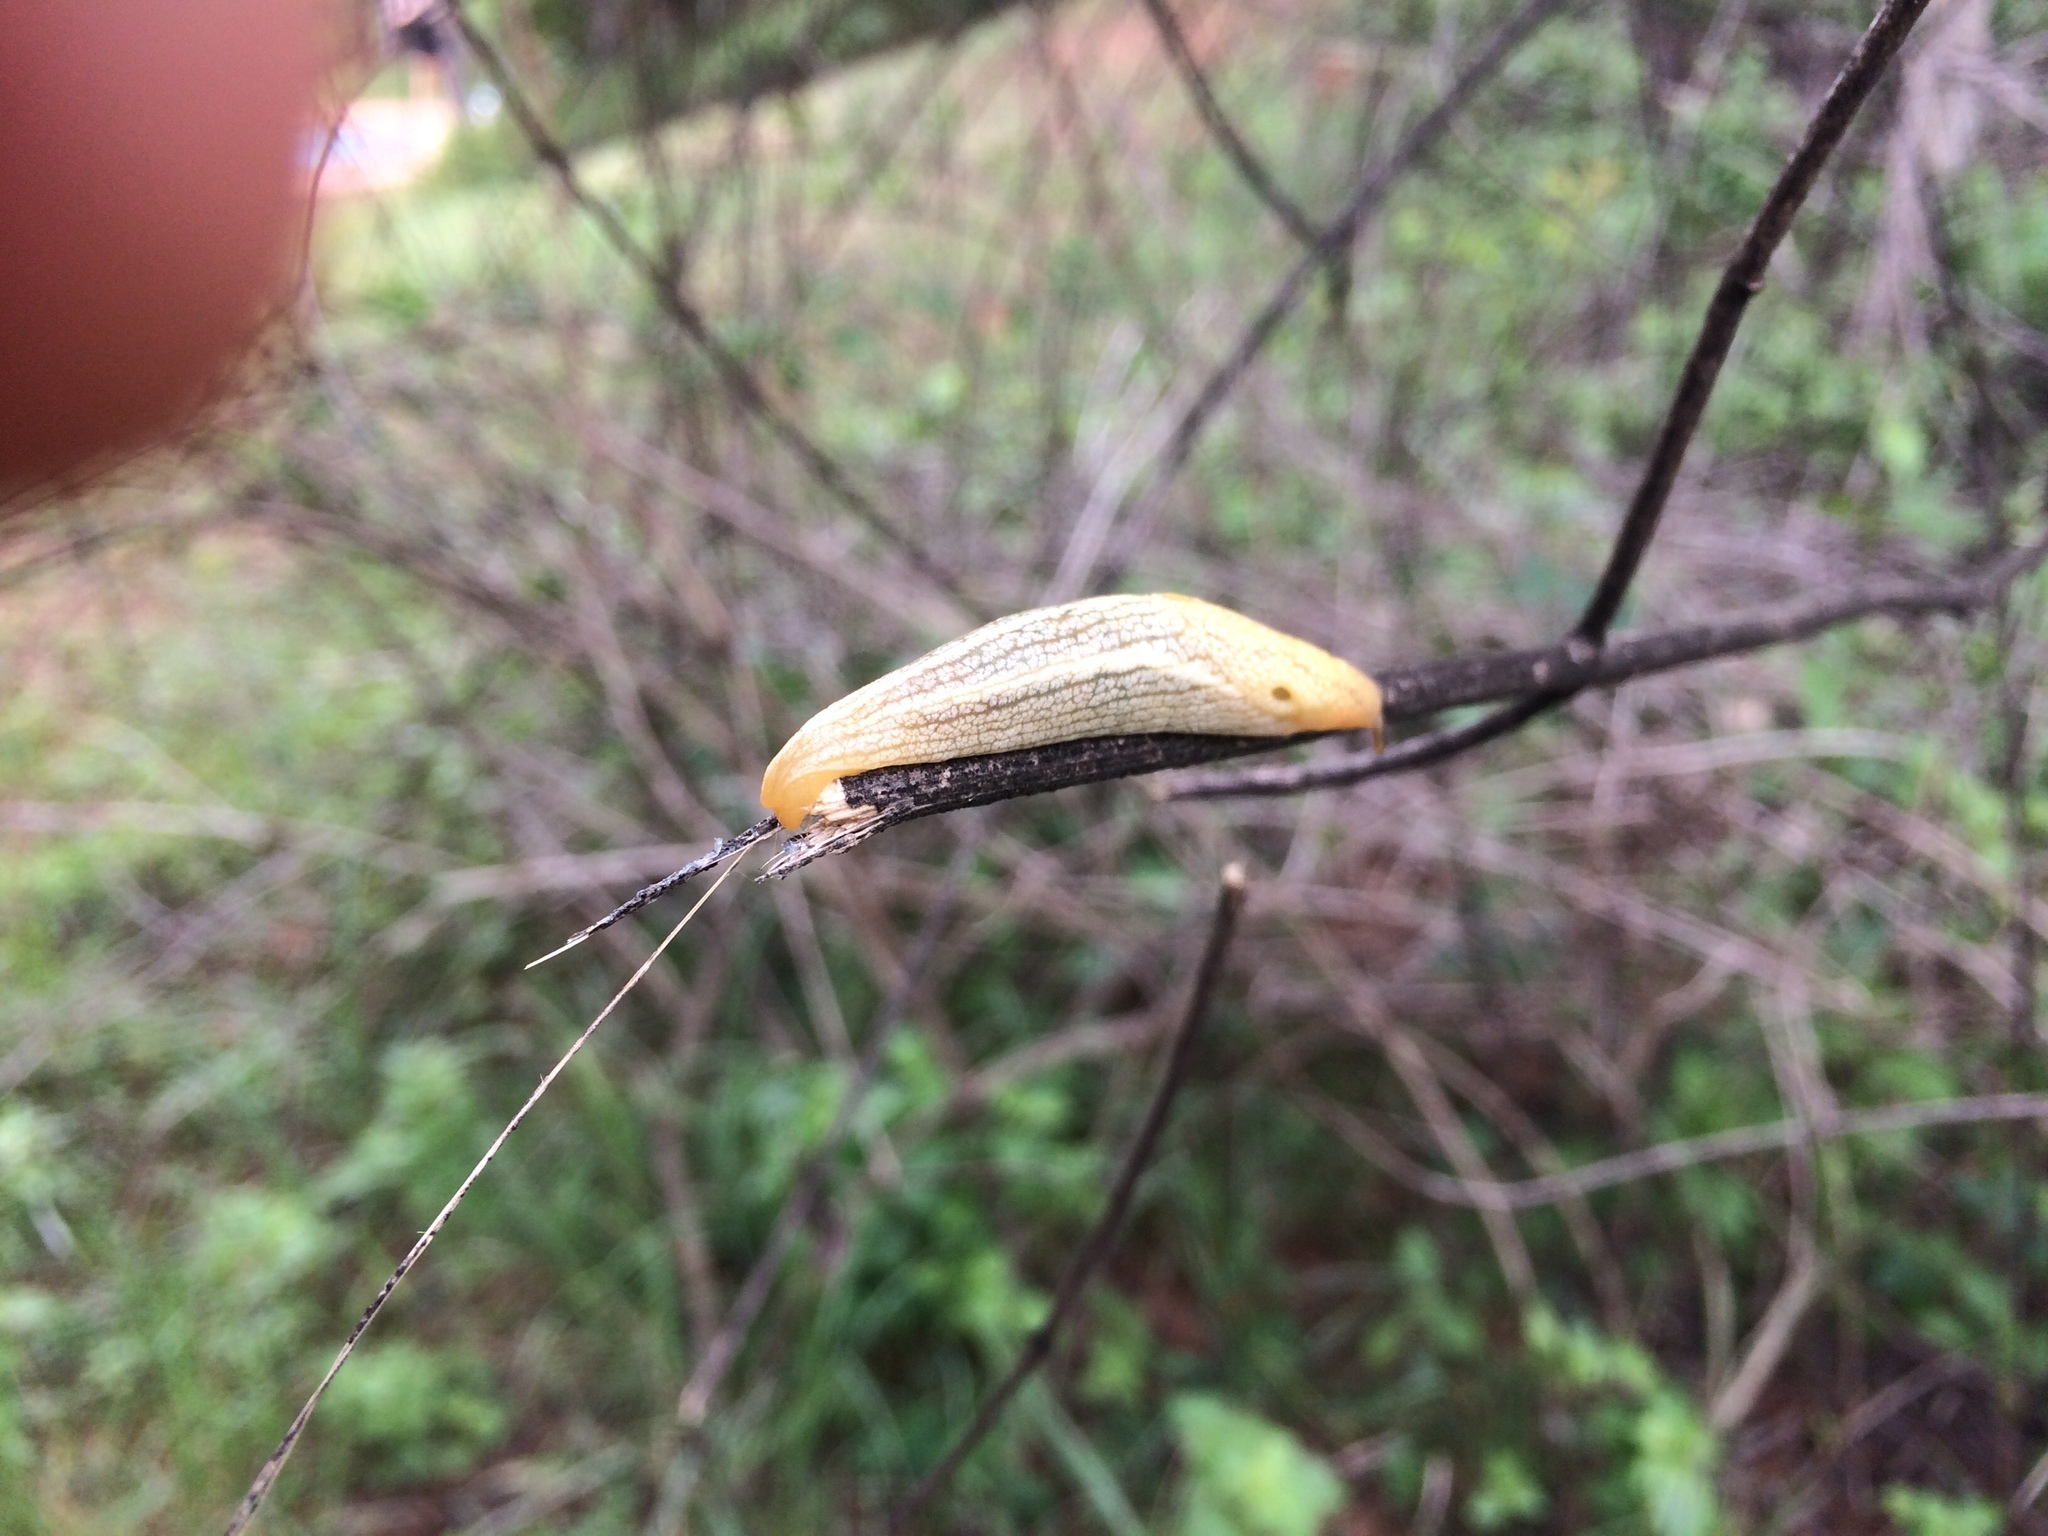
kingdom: Animalia
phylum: Mollusca
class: Gastropoda
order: Stylommatophora
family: Urocyclidae
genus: Elisolimax
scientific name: Elisolimax flavescens
